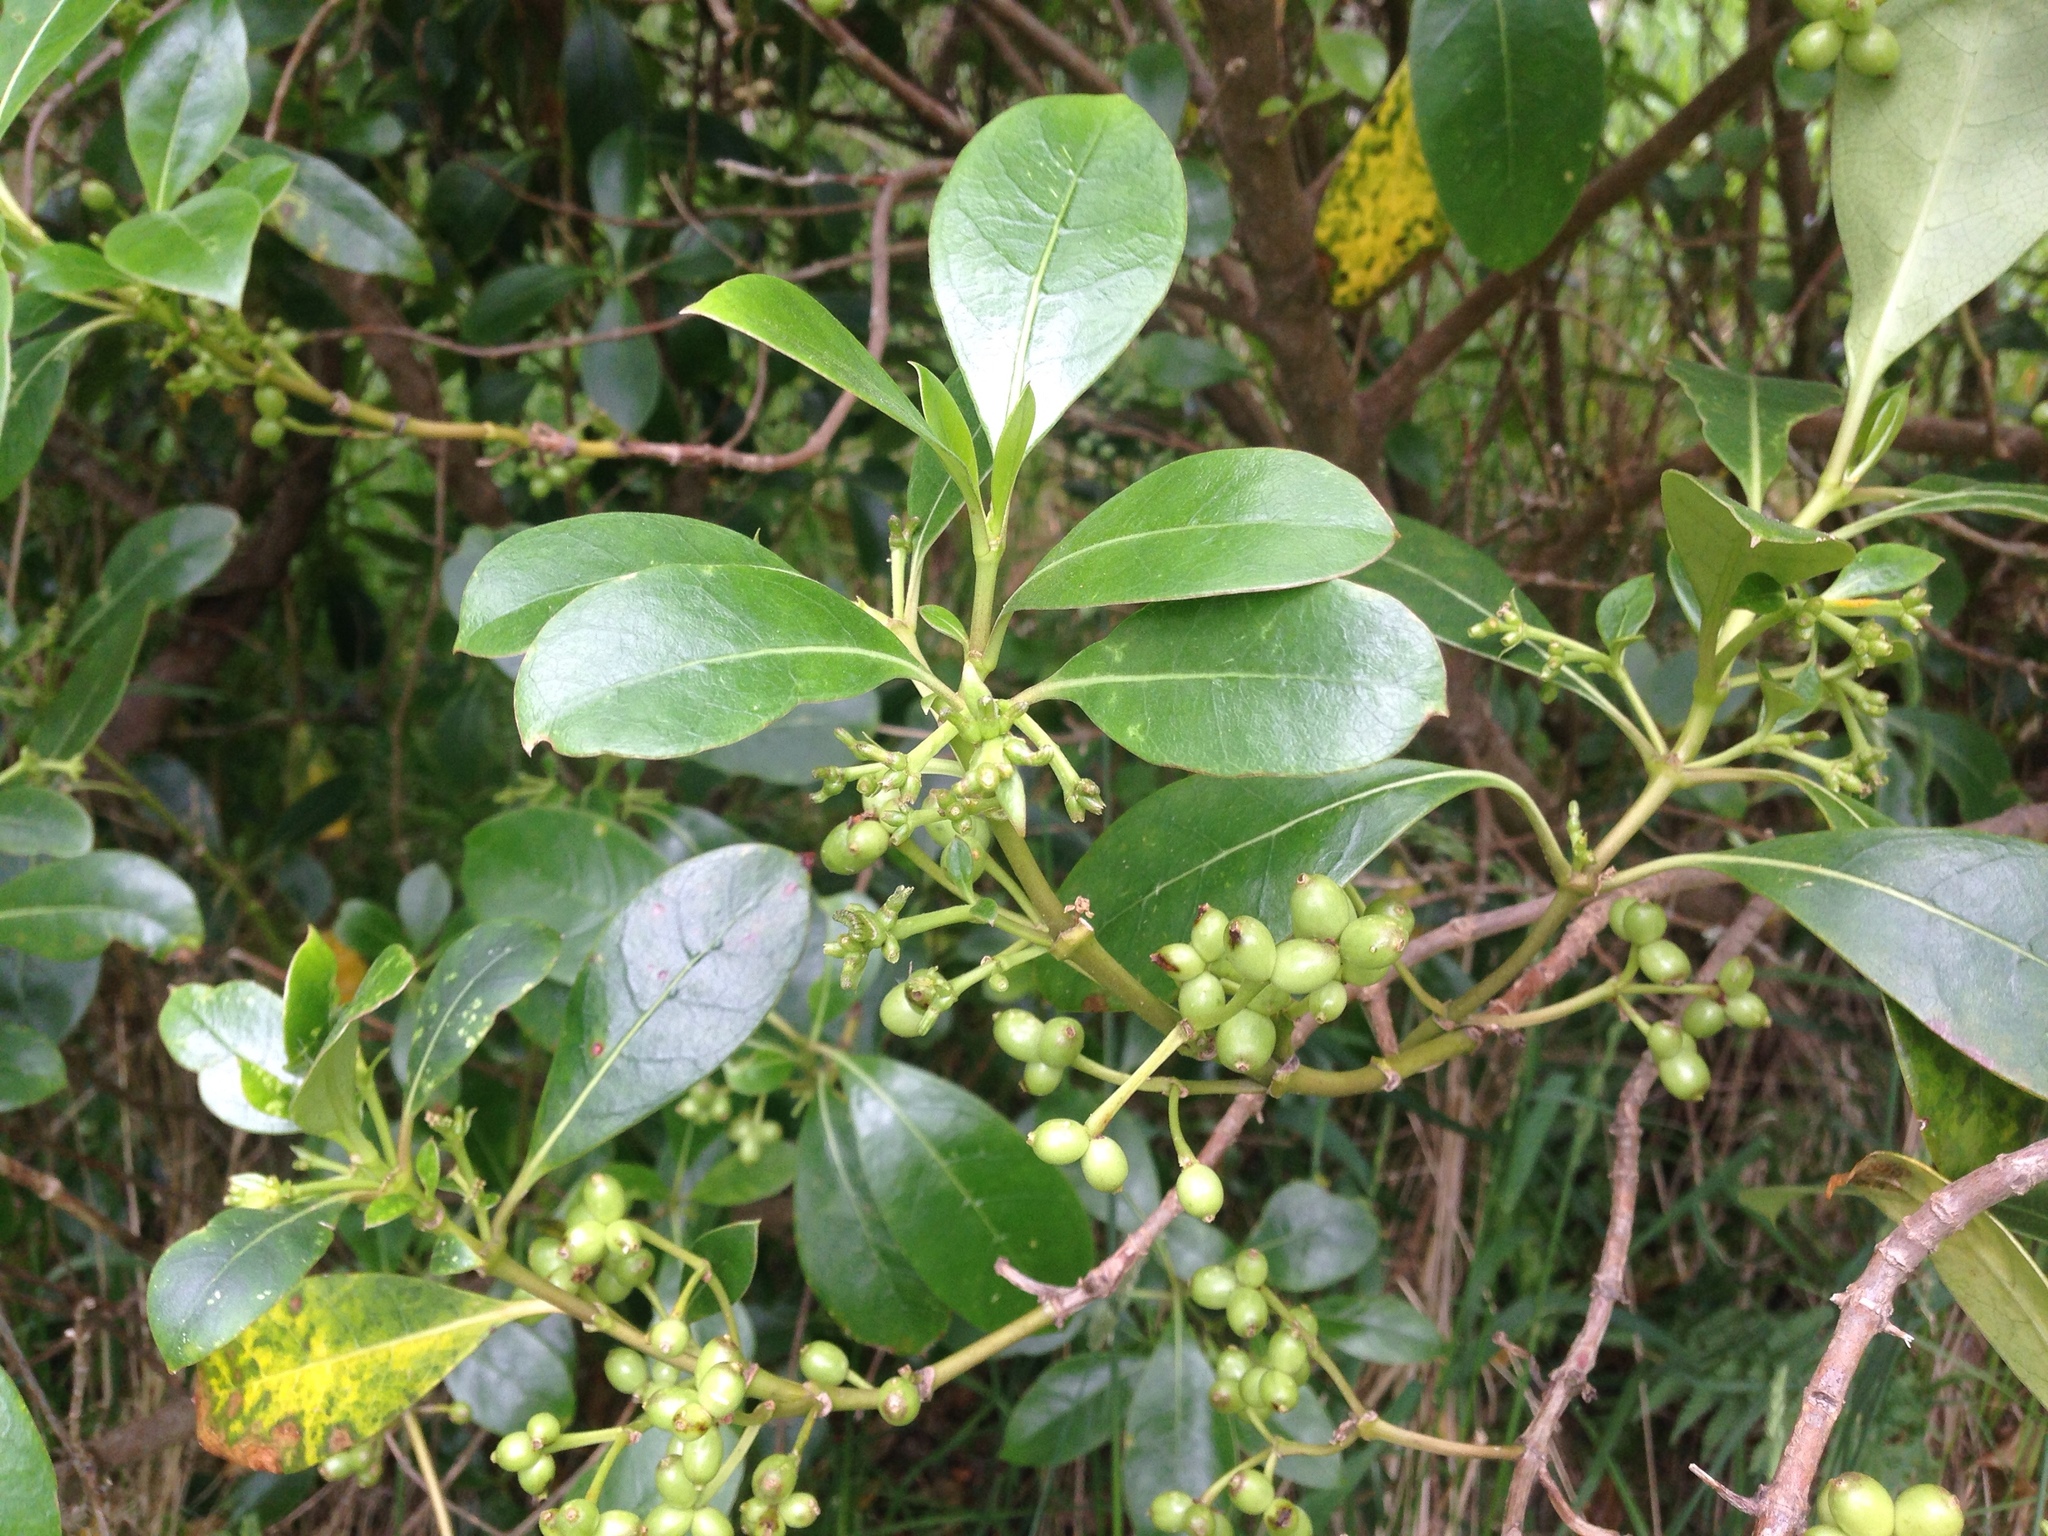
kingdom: Plantae
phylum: Tracheophyta
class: Magnoliopsida
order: Gentianales
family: Rubiaceae
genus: Coprosma
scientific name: Coprosma lucida
